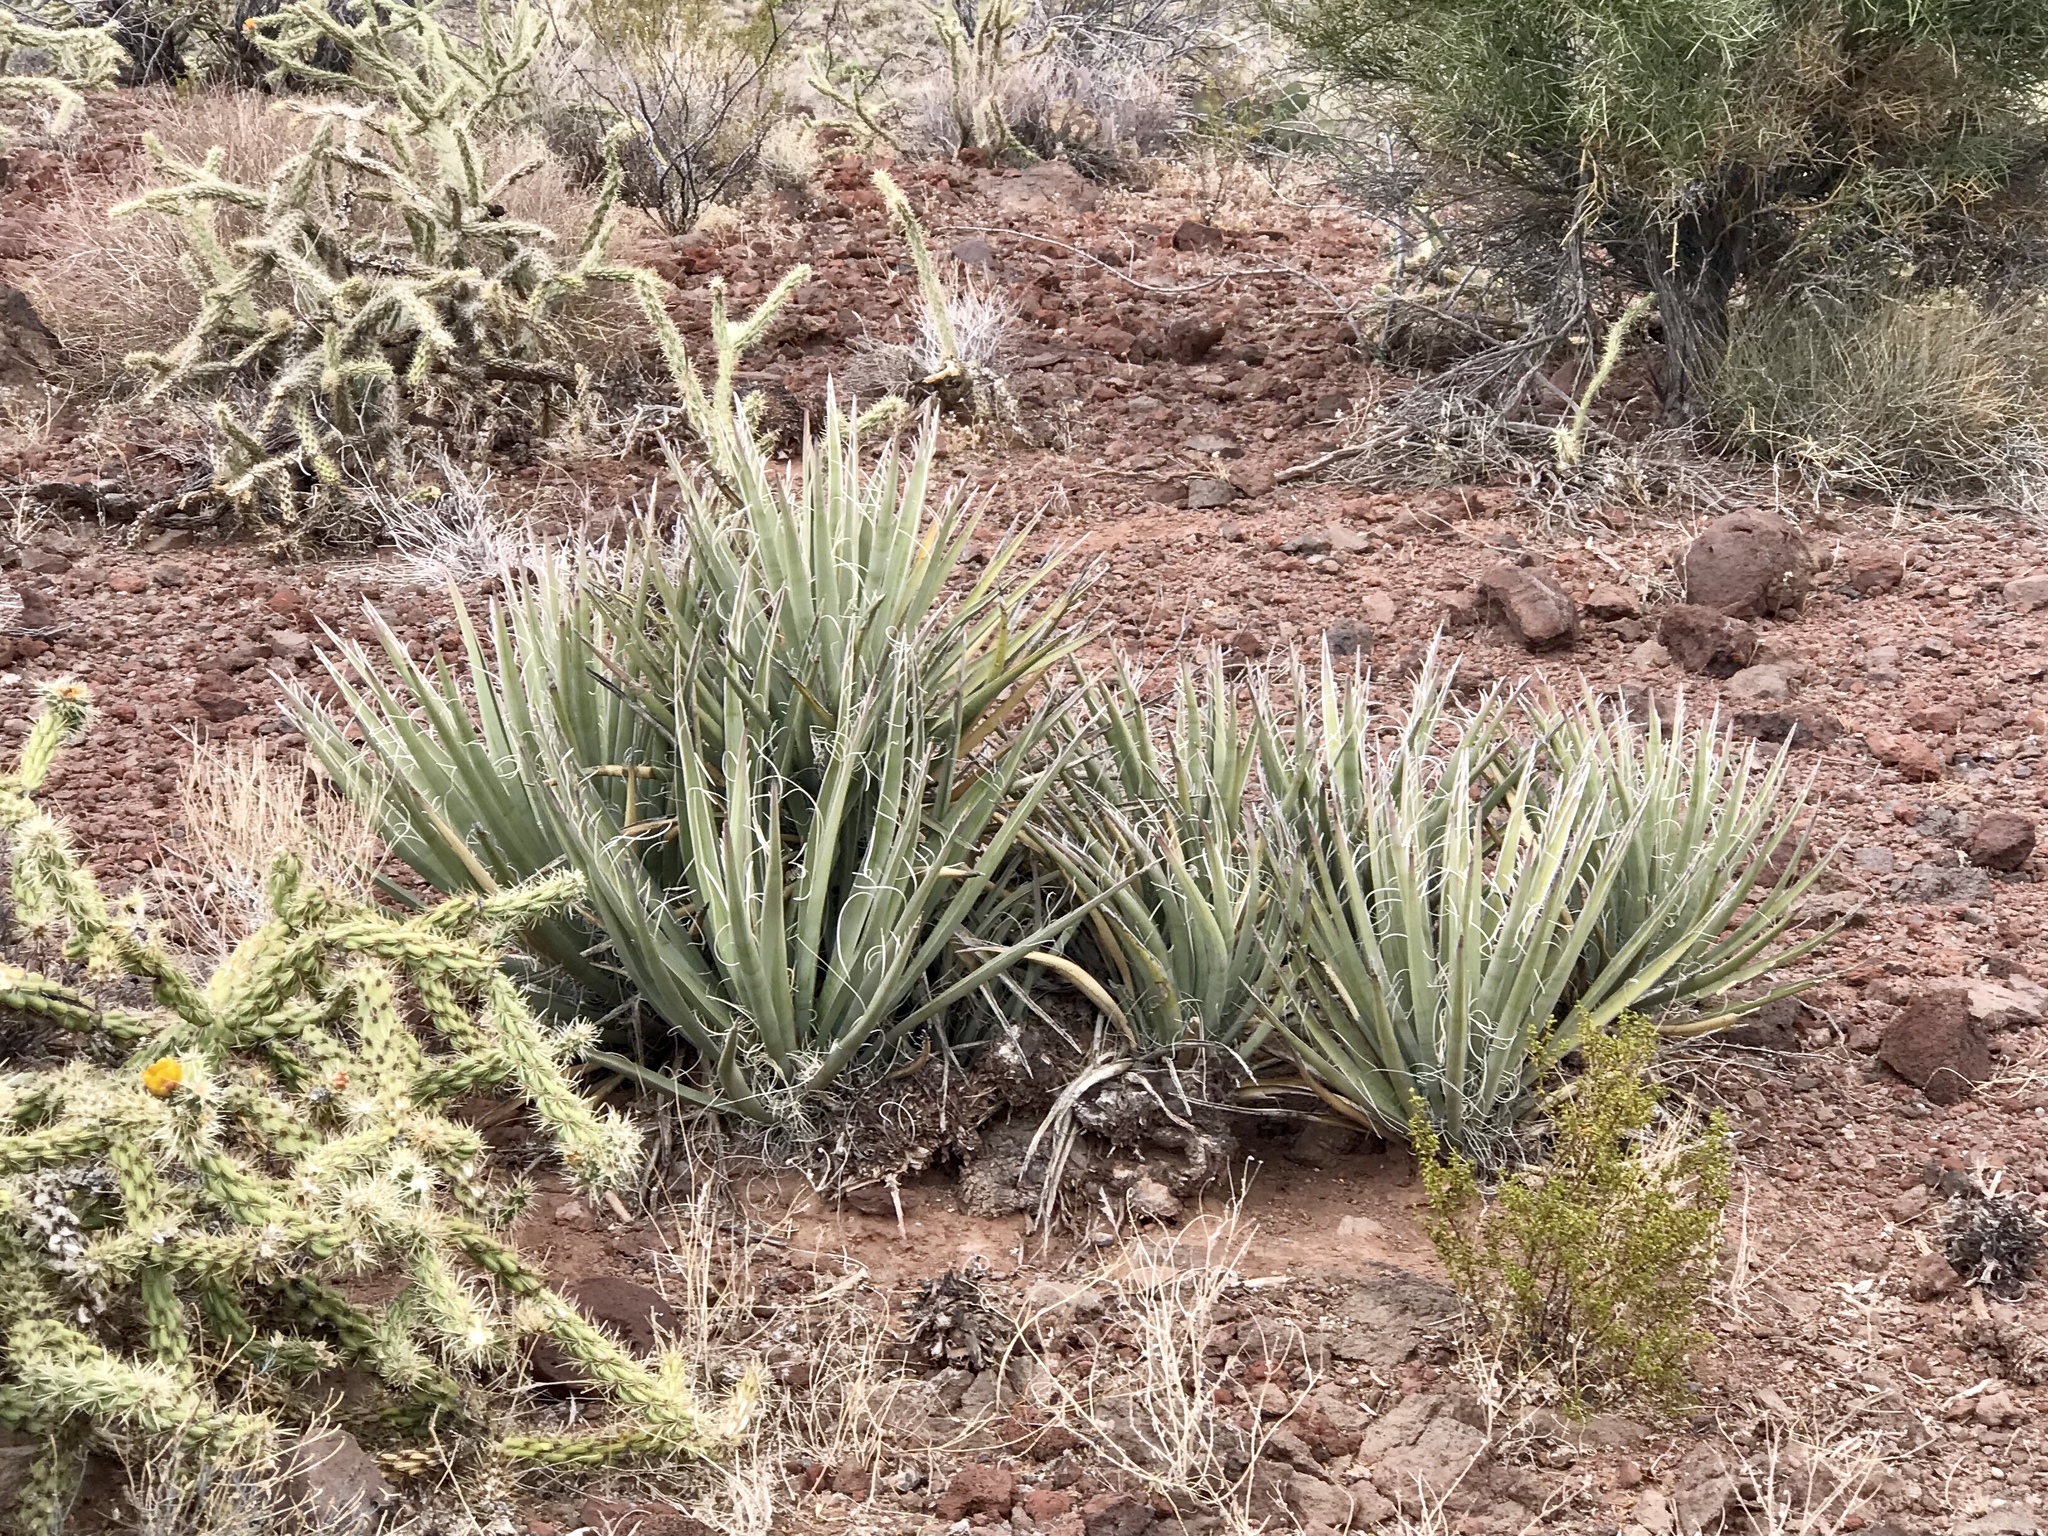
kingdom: Plantae
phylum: Tracheophyta
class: Liliopsida
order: Asparagales
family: Asparagaceae
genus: Yucca
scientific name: Yucca baccata
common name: Banana yucca
